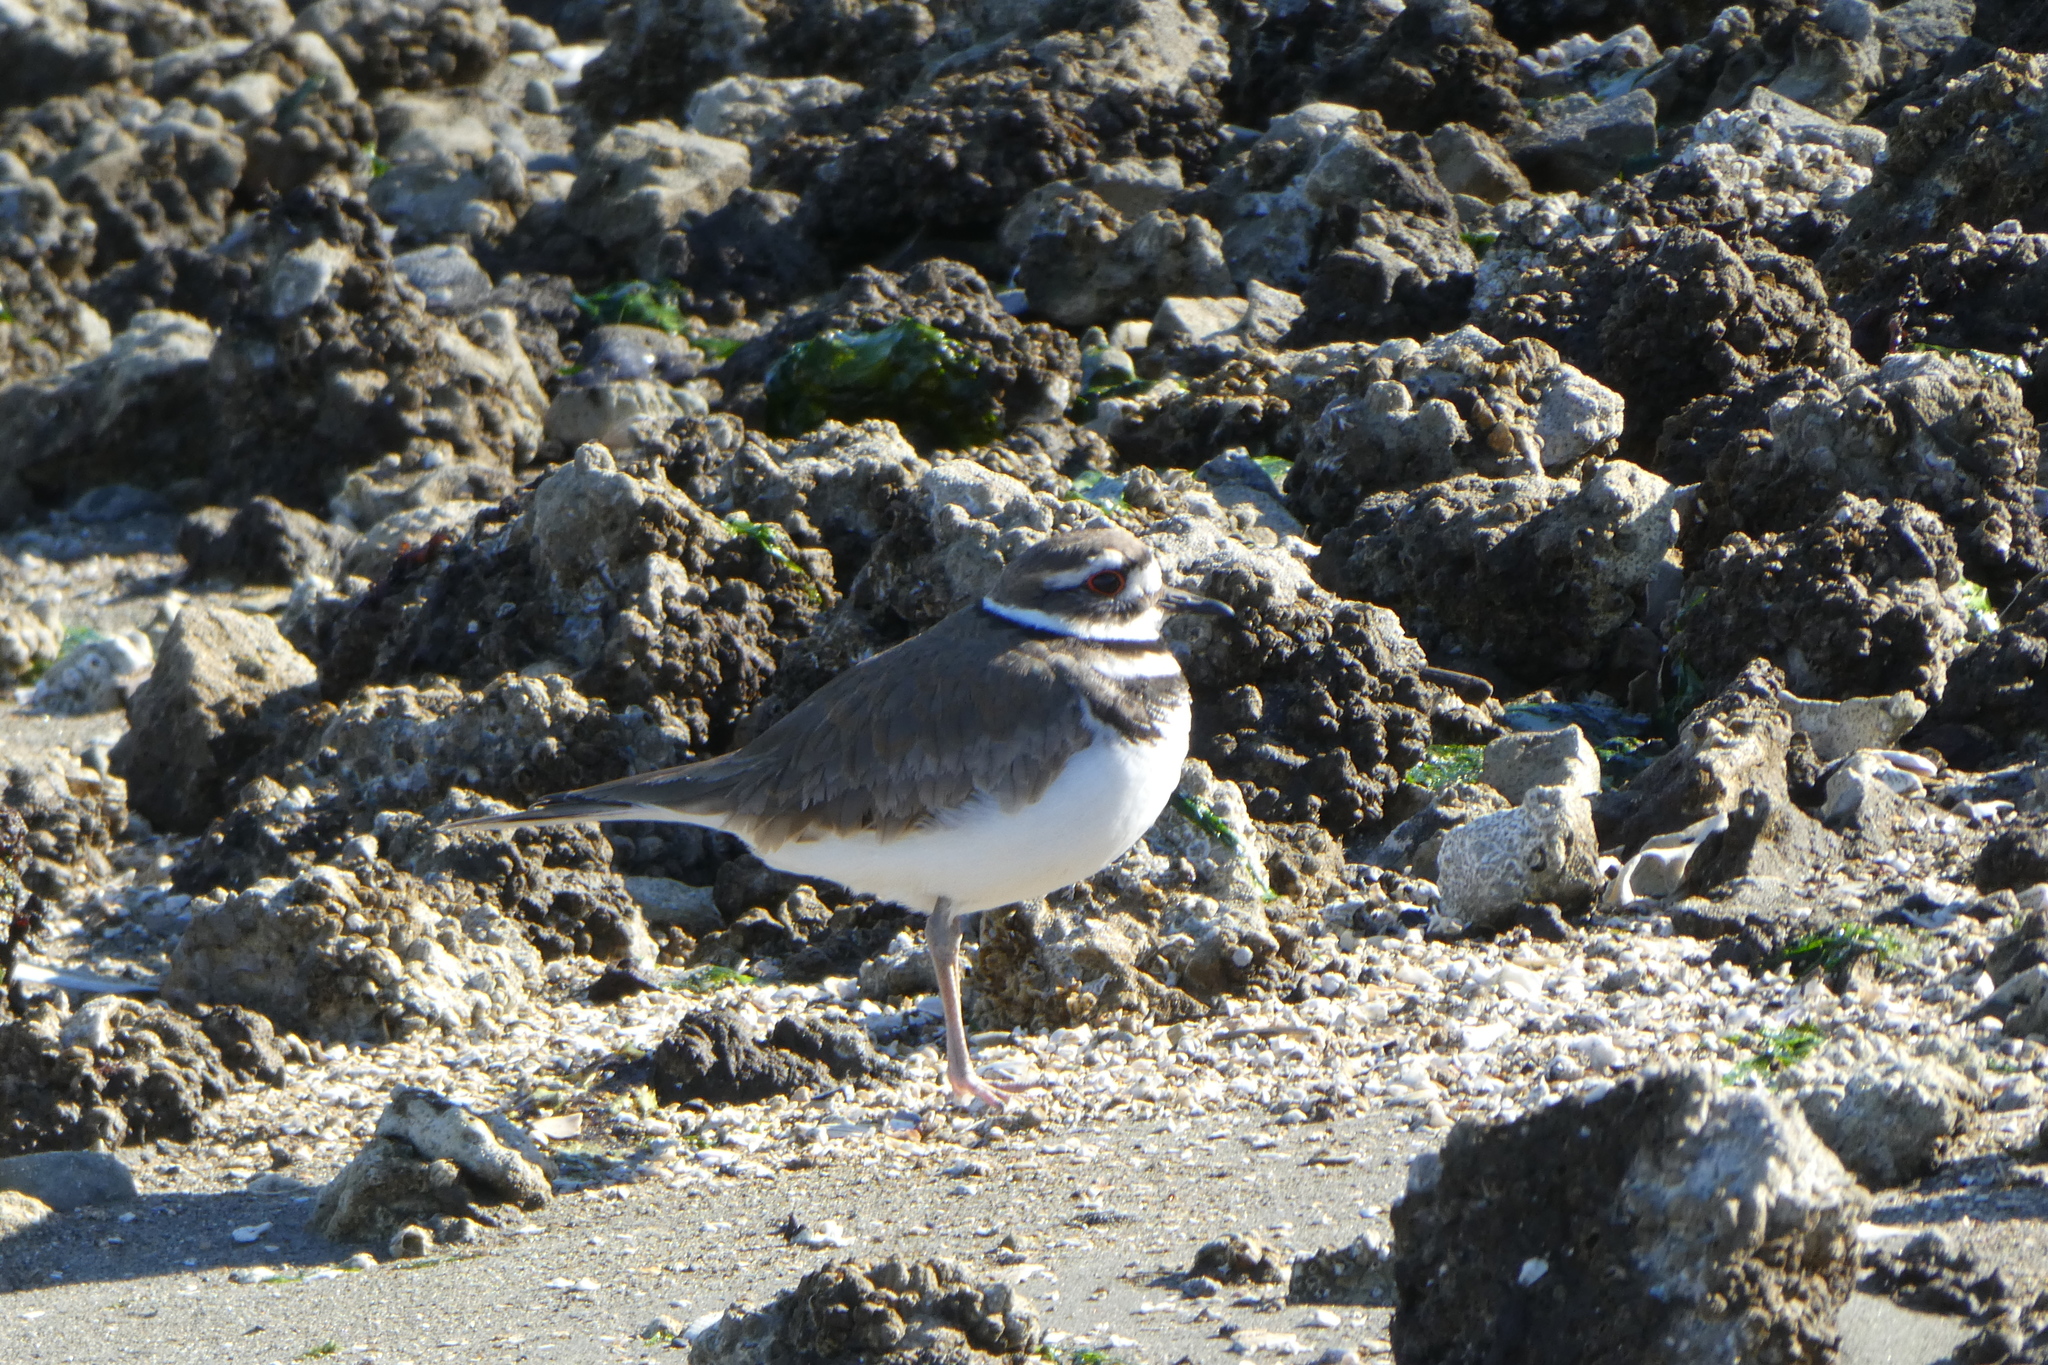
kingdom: Animalia
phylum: Chordata
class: Aves
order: Charadriiformes
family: Charadriidae
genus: Charadrius
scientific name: Charadrius vociferus
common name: Killdeer
